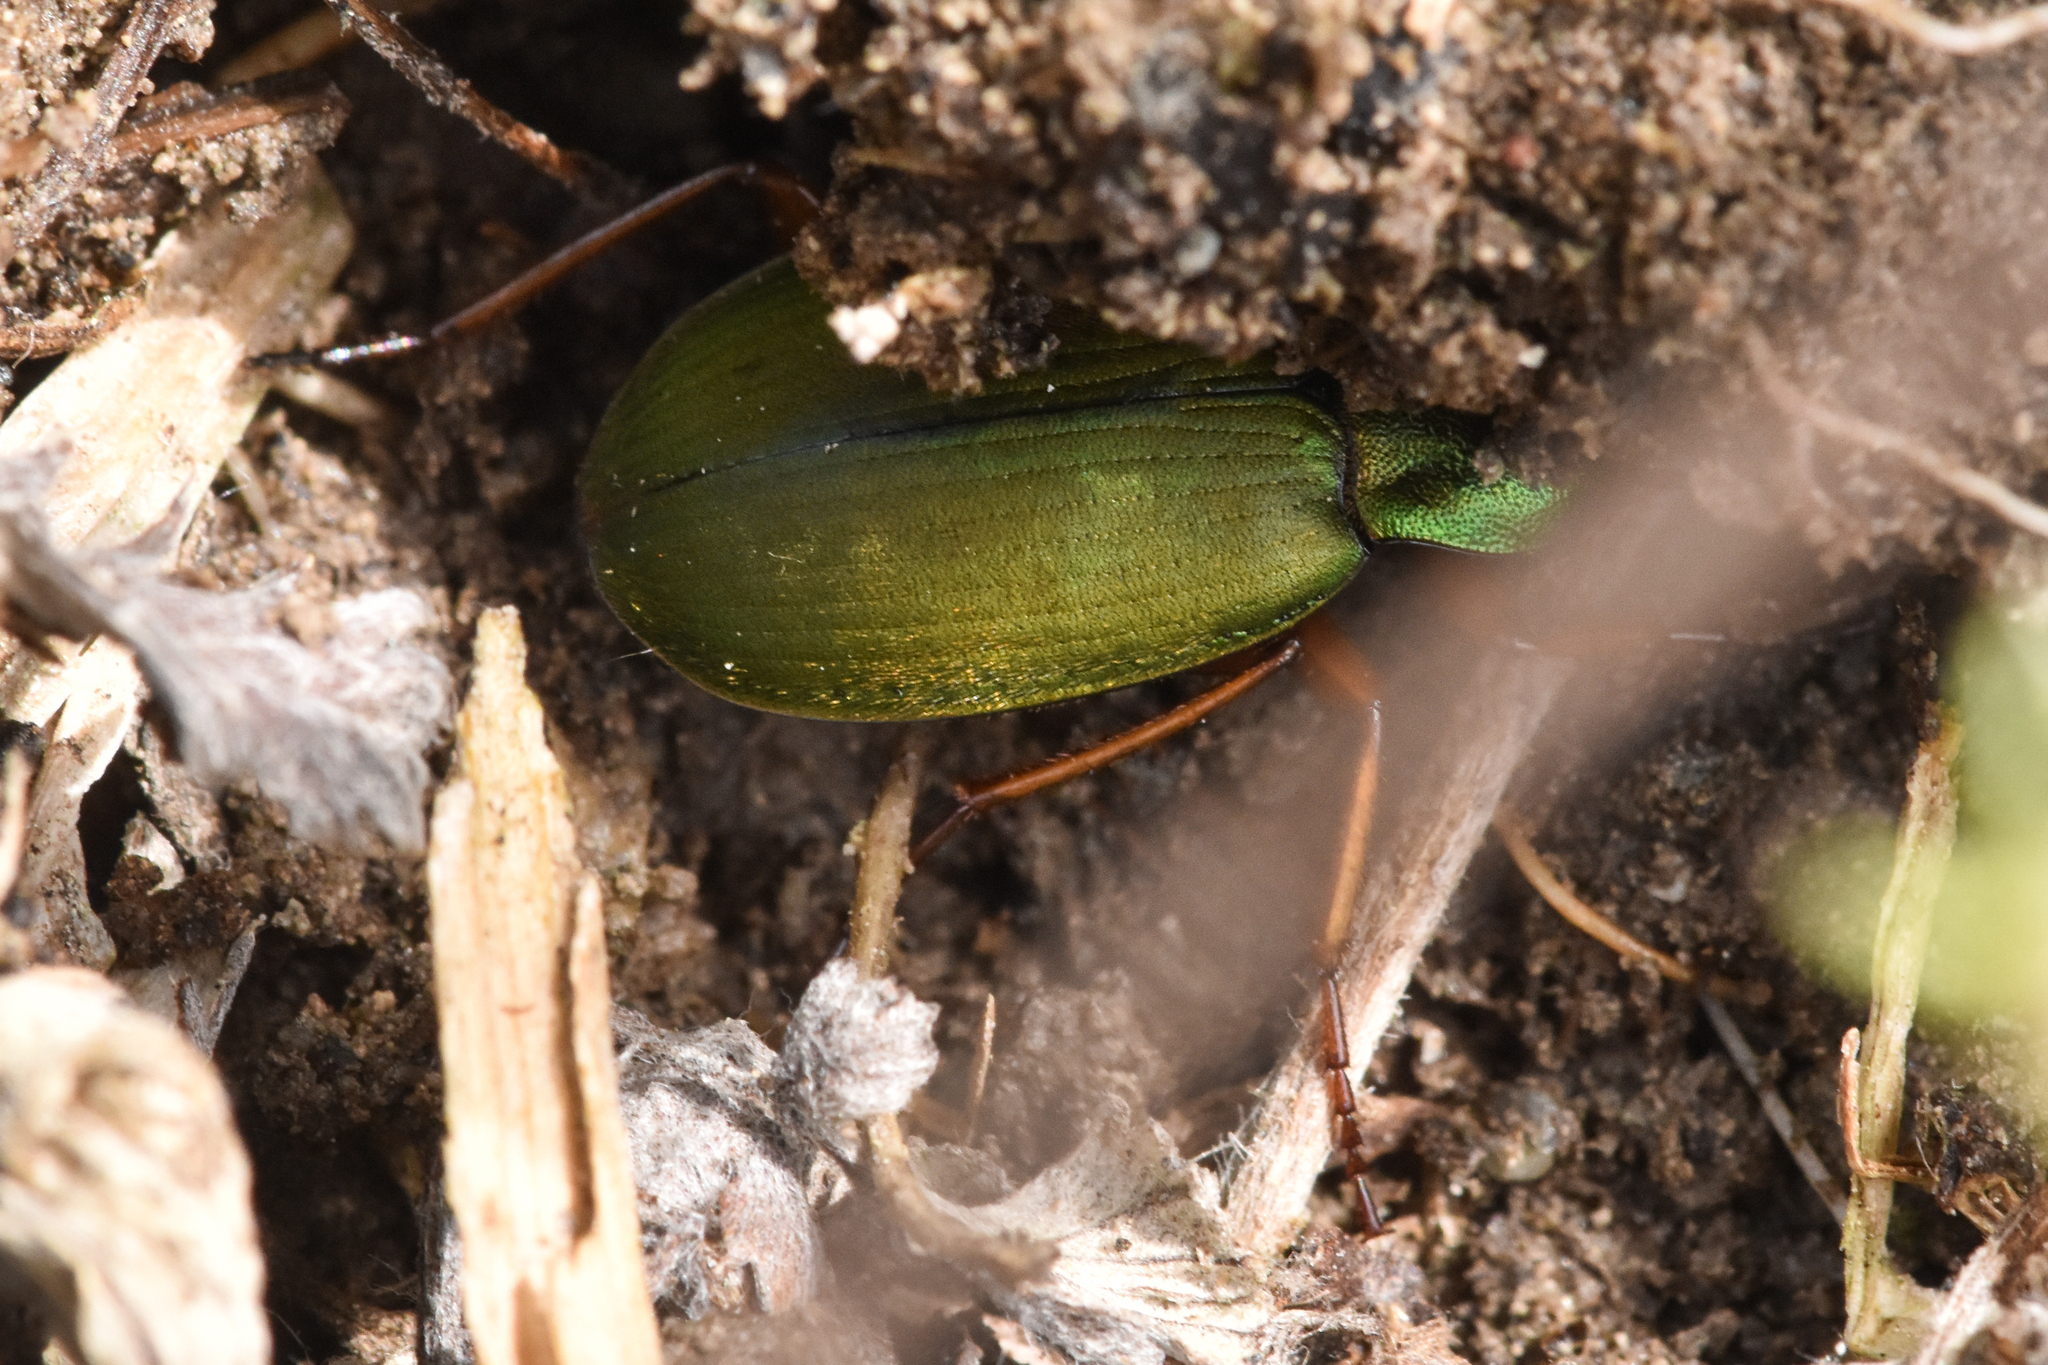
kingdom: Animalia
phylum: Arthropoda
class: Insecta
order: Coleoptera
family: Carabidae
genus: Chlaenius
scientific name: Chlaenius sericeus
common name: Green pubescent ground beetle
